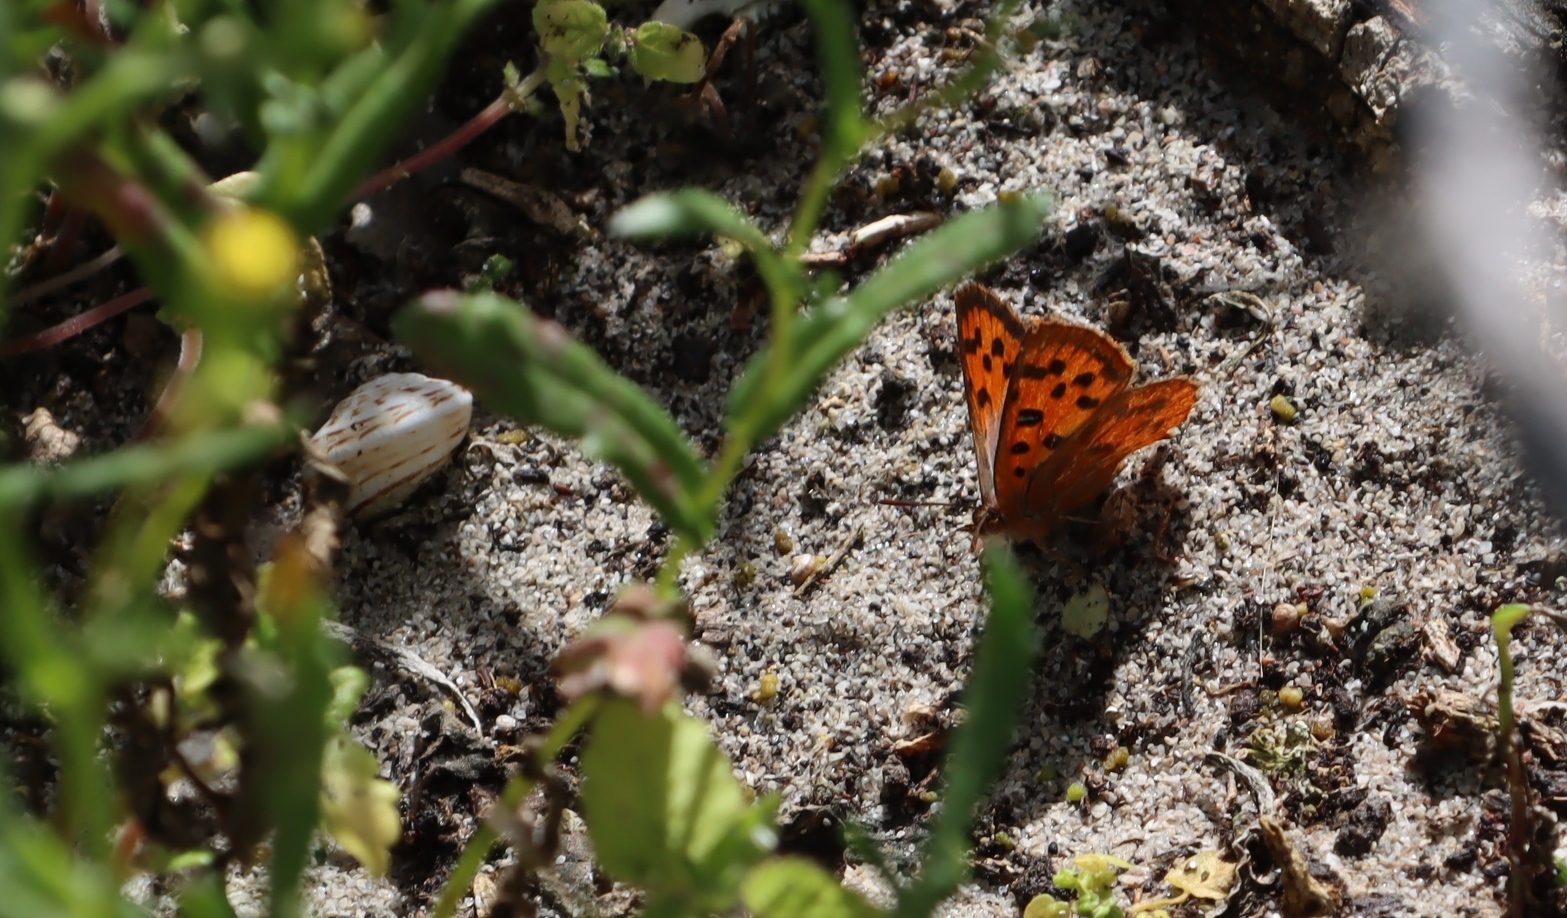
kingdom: Animalia
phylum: Arthropoda
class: Insecta
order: Lepidoptera
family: Lycaenidae
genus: Chrysoritis
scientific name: Chrysoritis pyroeis
